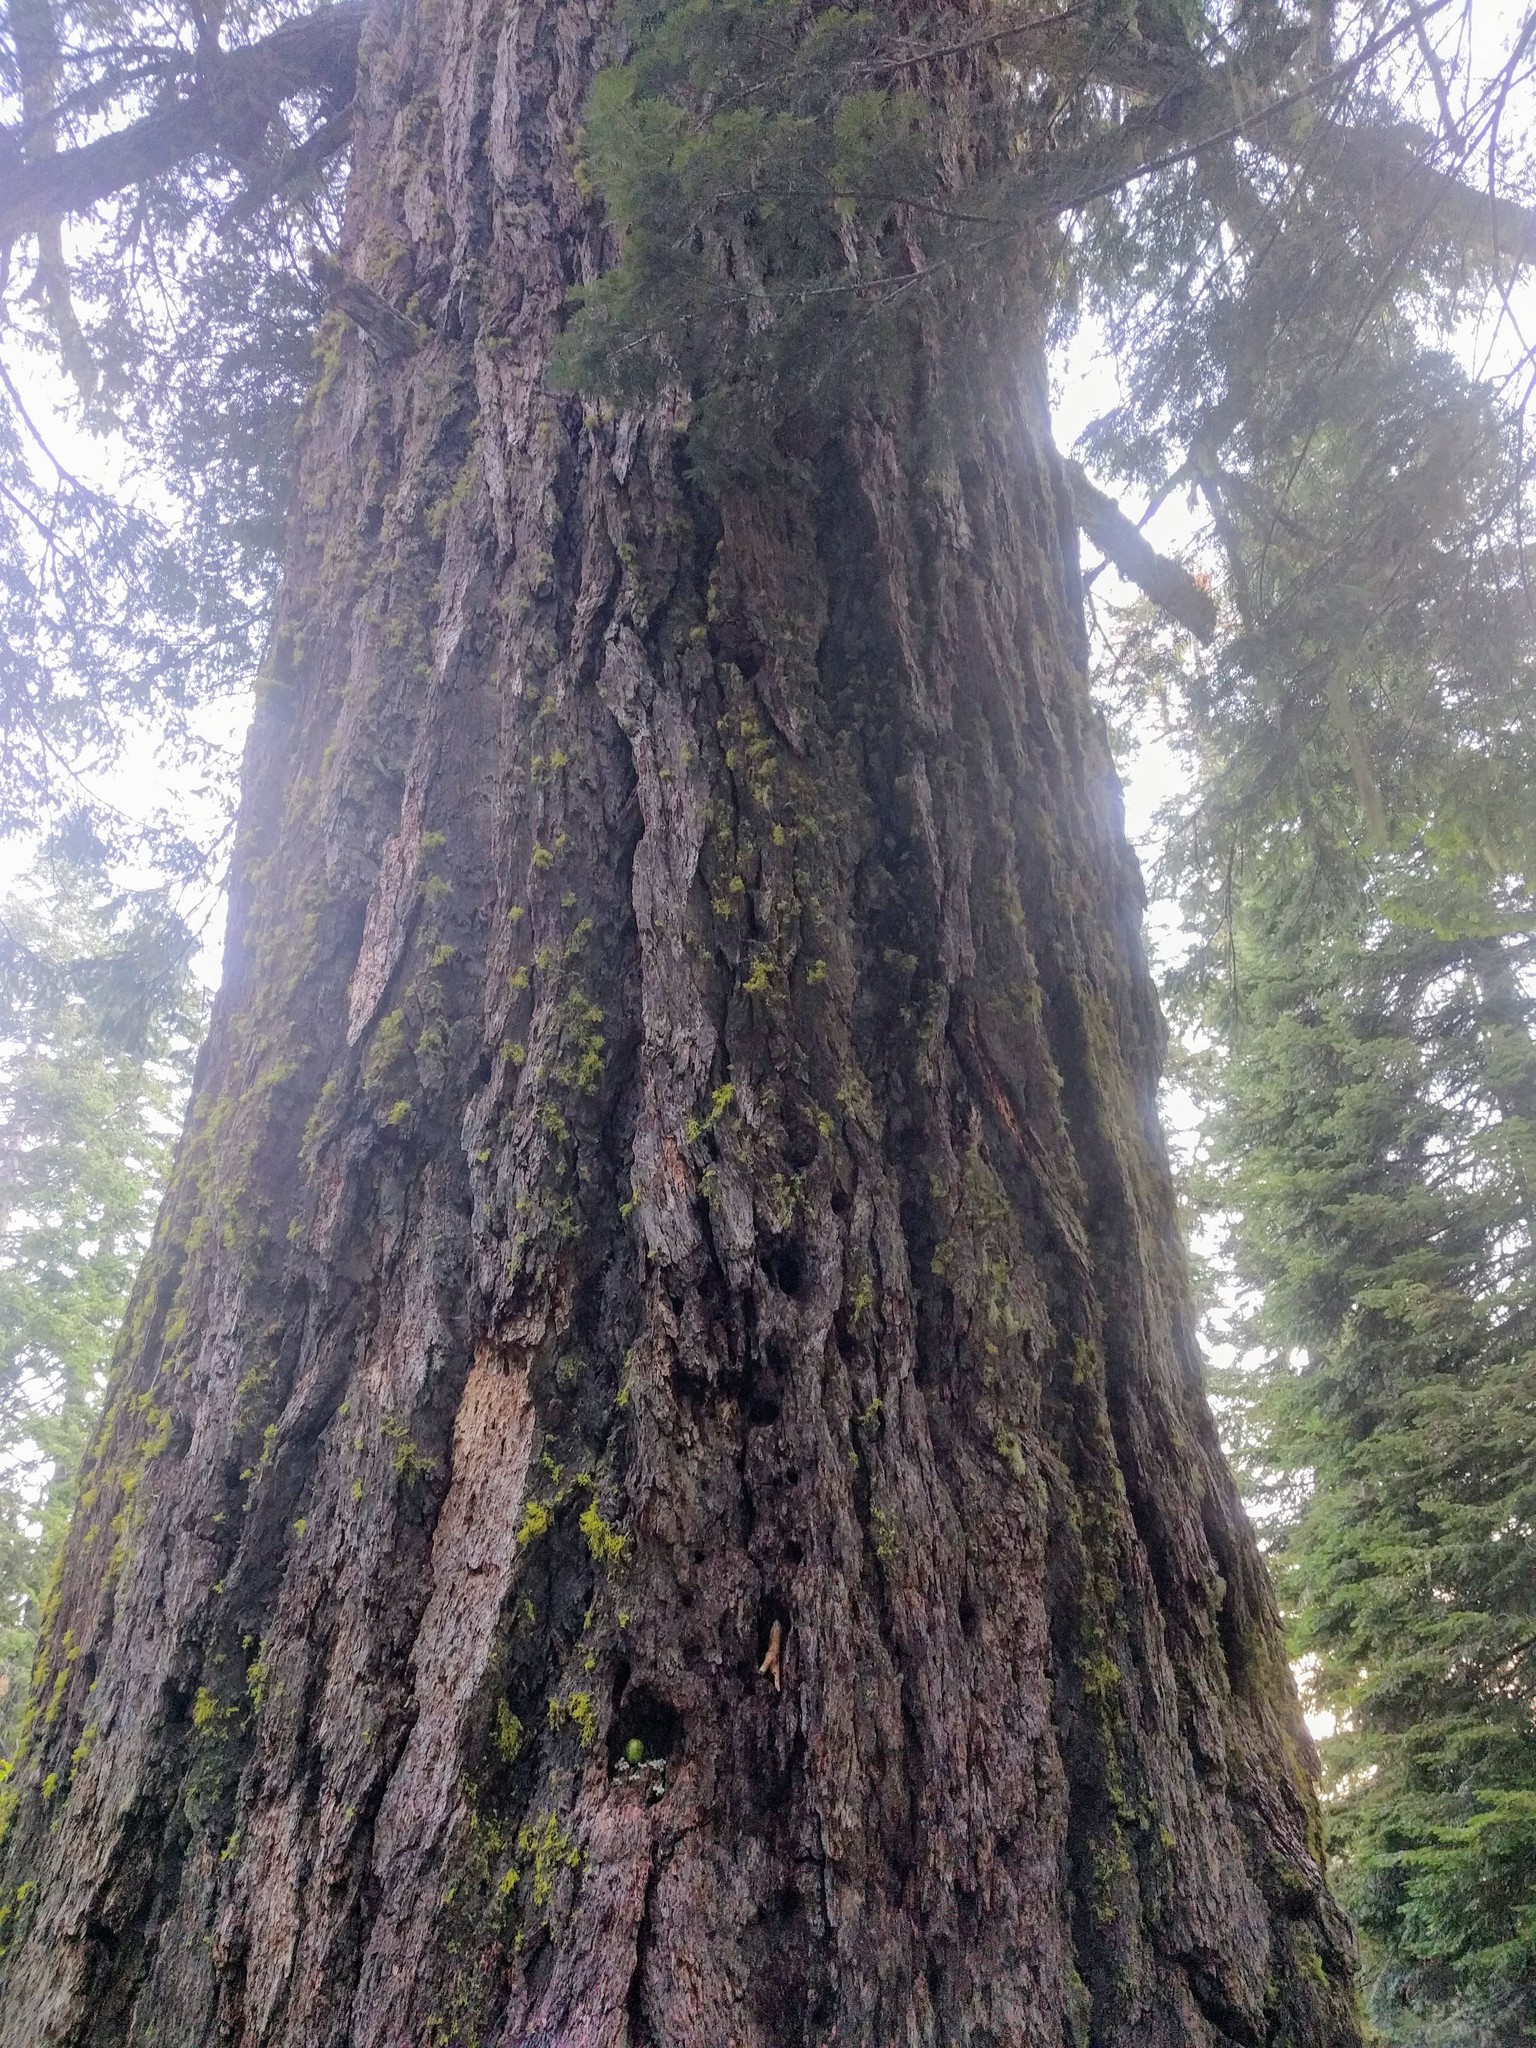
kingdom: Plantae
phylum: Tracheophyta
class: Pinopsida
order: Pinales
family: Pinaceae
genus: Pseudotsuga
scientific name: Pseudotsuga menziesii
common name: Douglas fir
